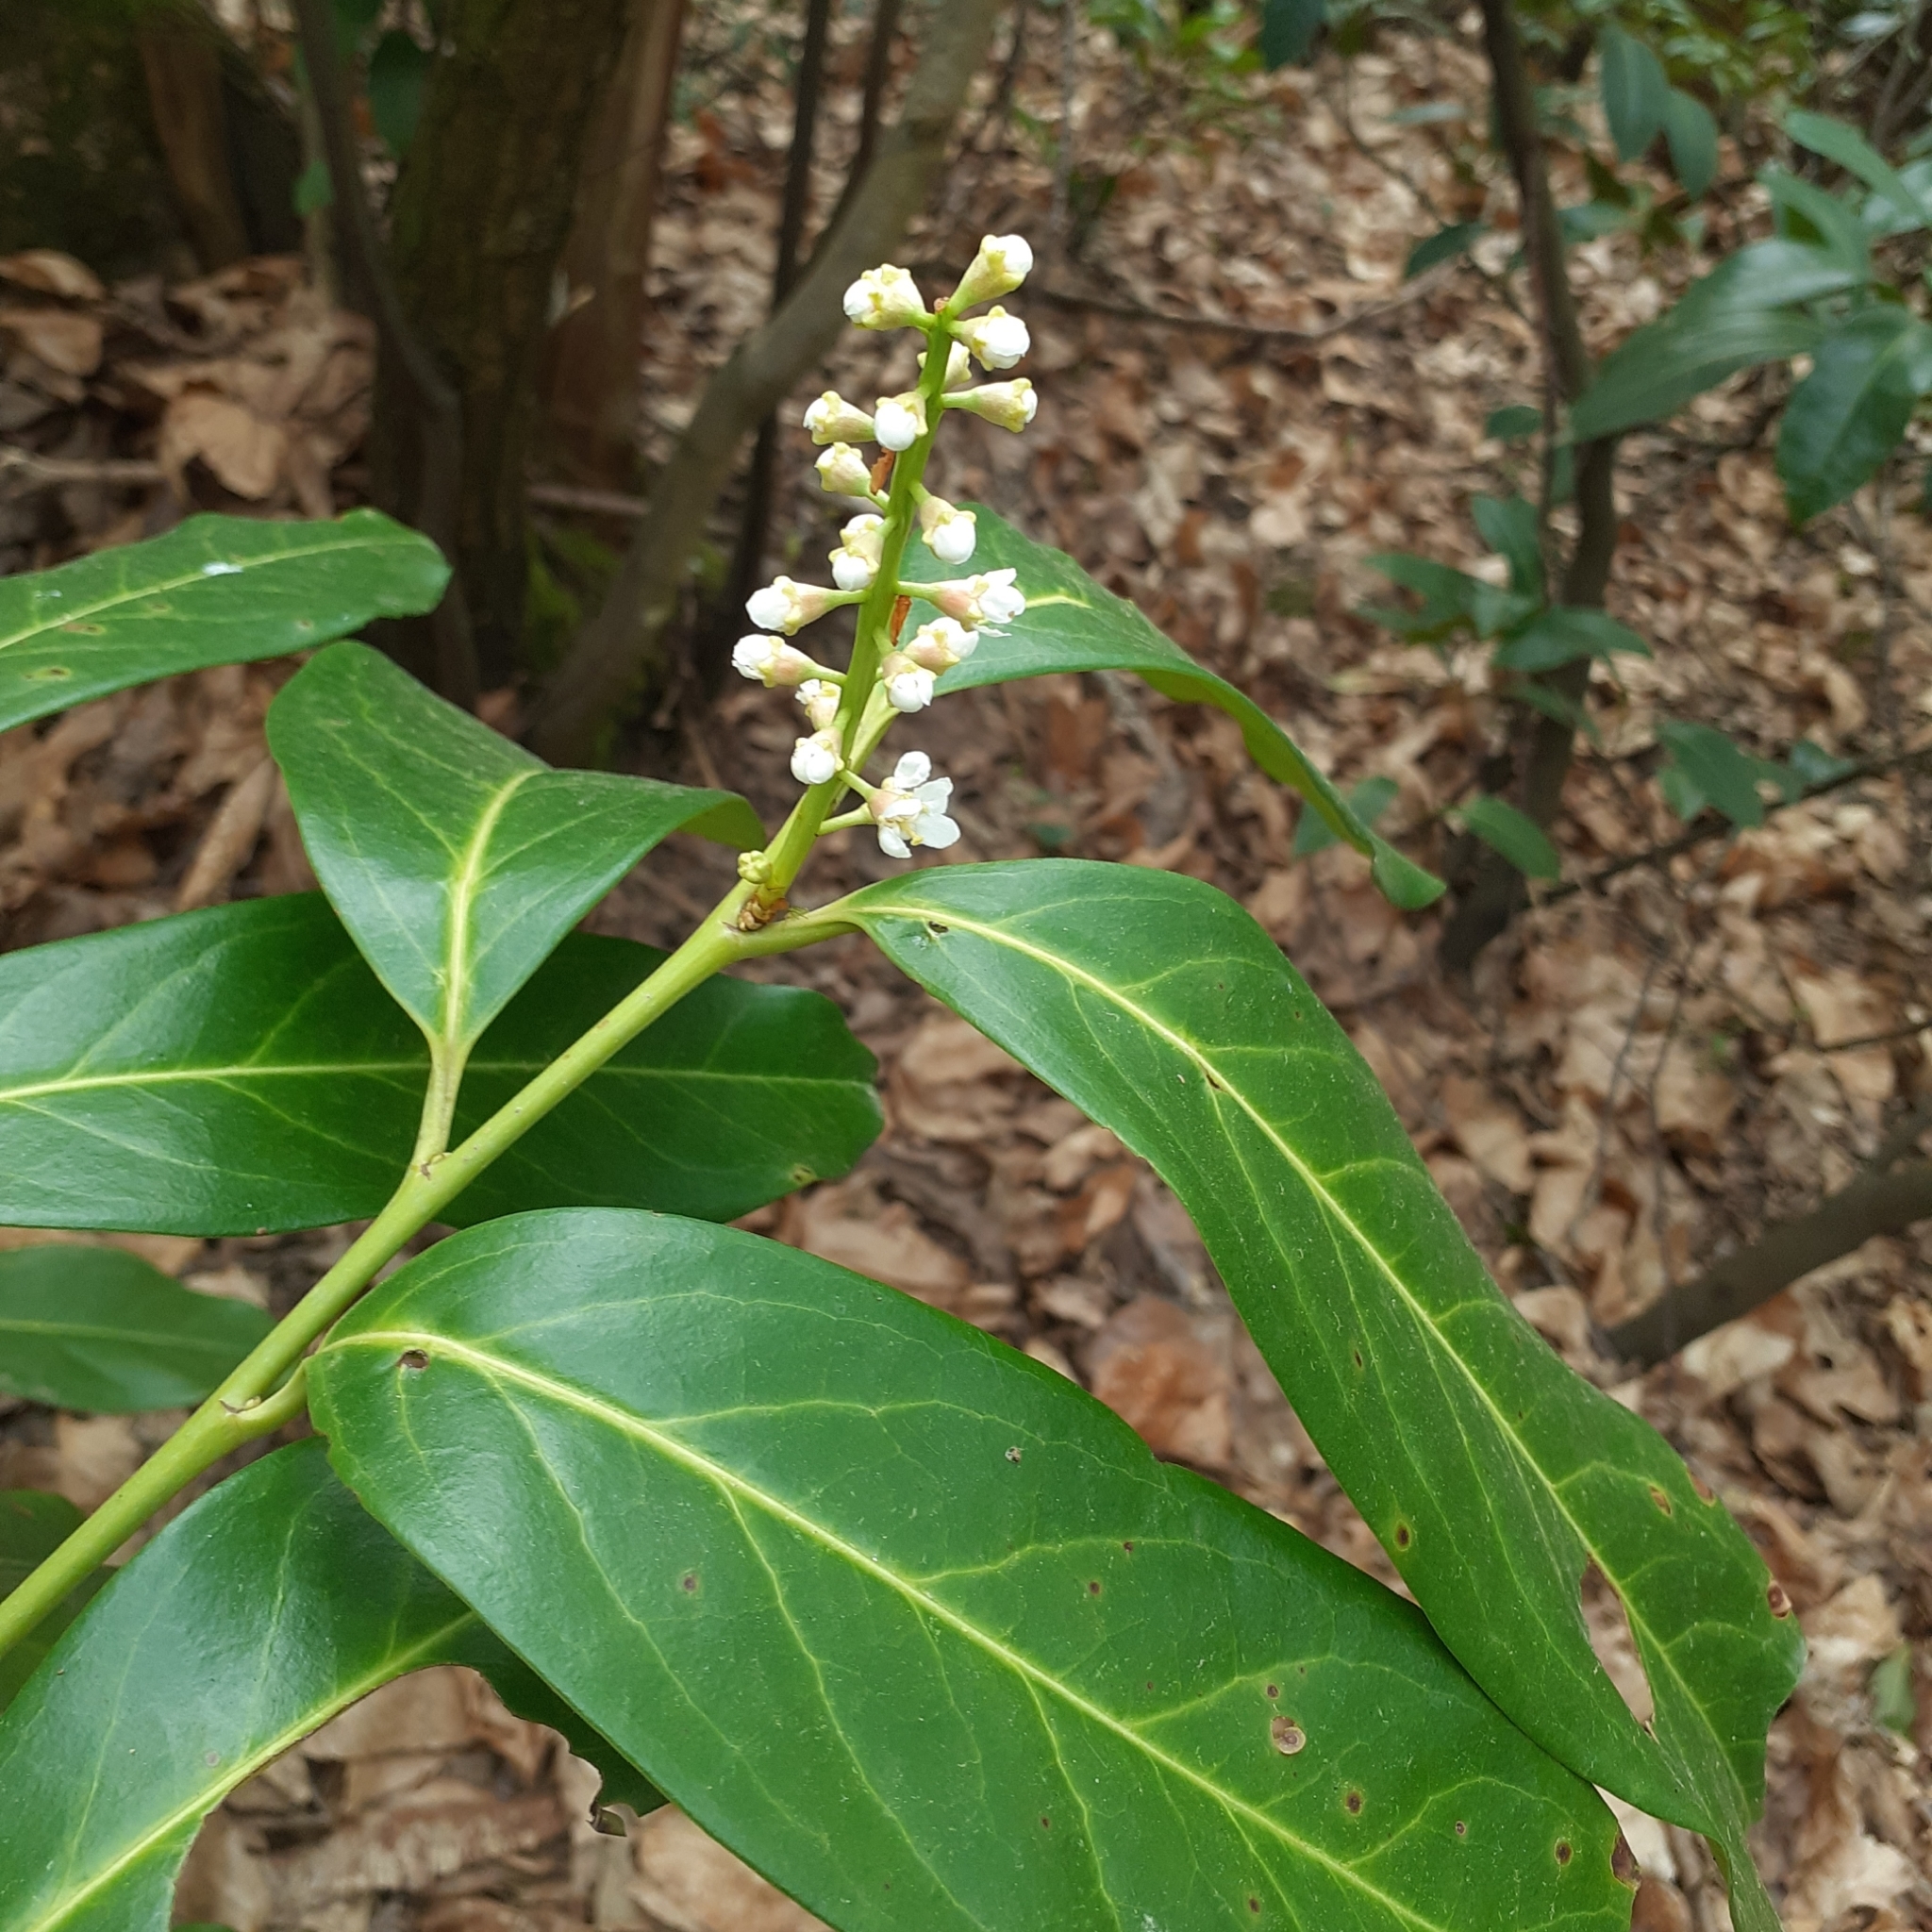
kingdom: Plantae
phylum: Tracheophyta
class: Magnoliopsida
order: Rosales
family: Rosaceae
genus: Prunus
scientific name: Prunus laurocerasus
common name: Cherry laurel
